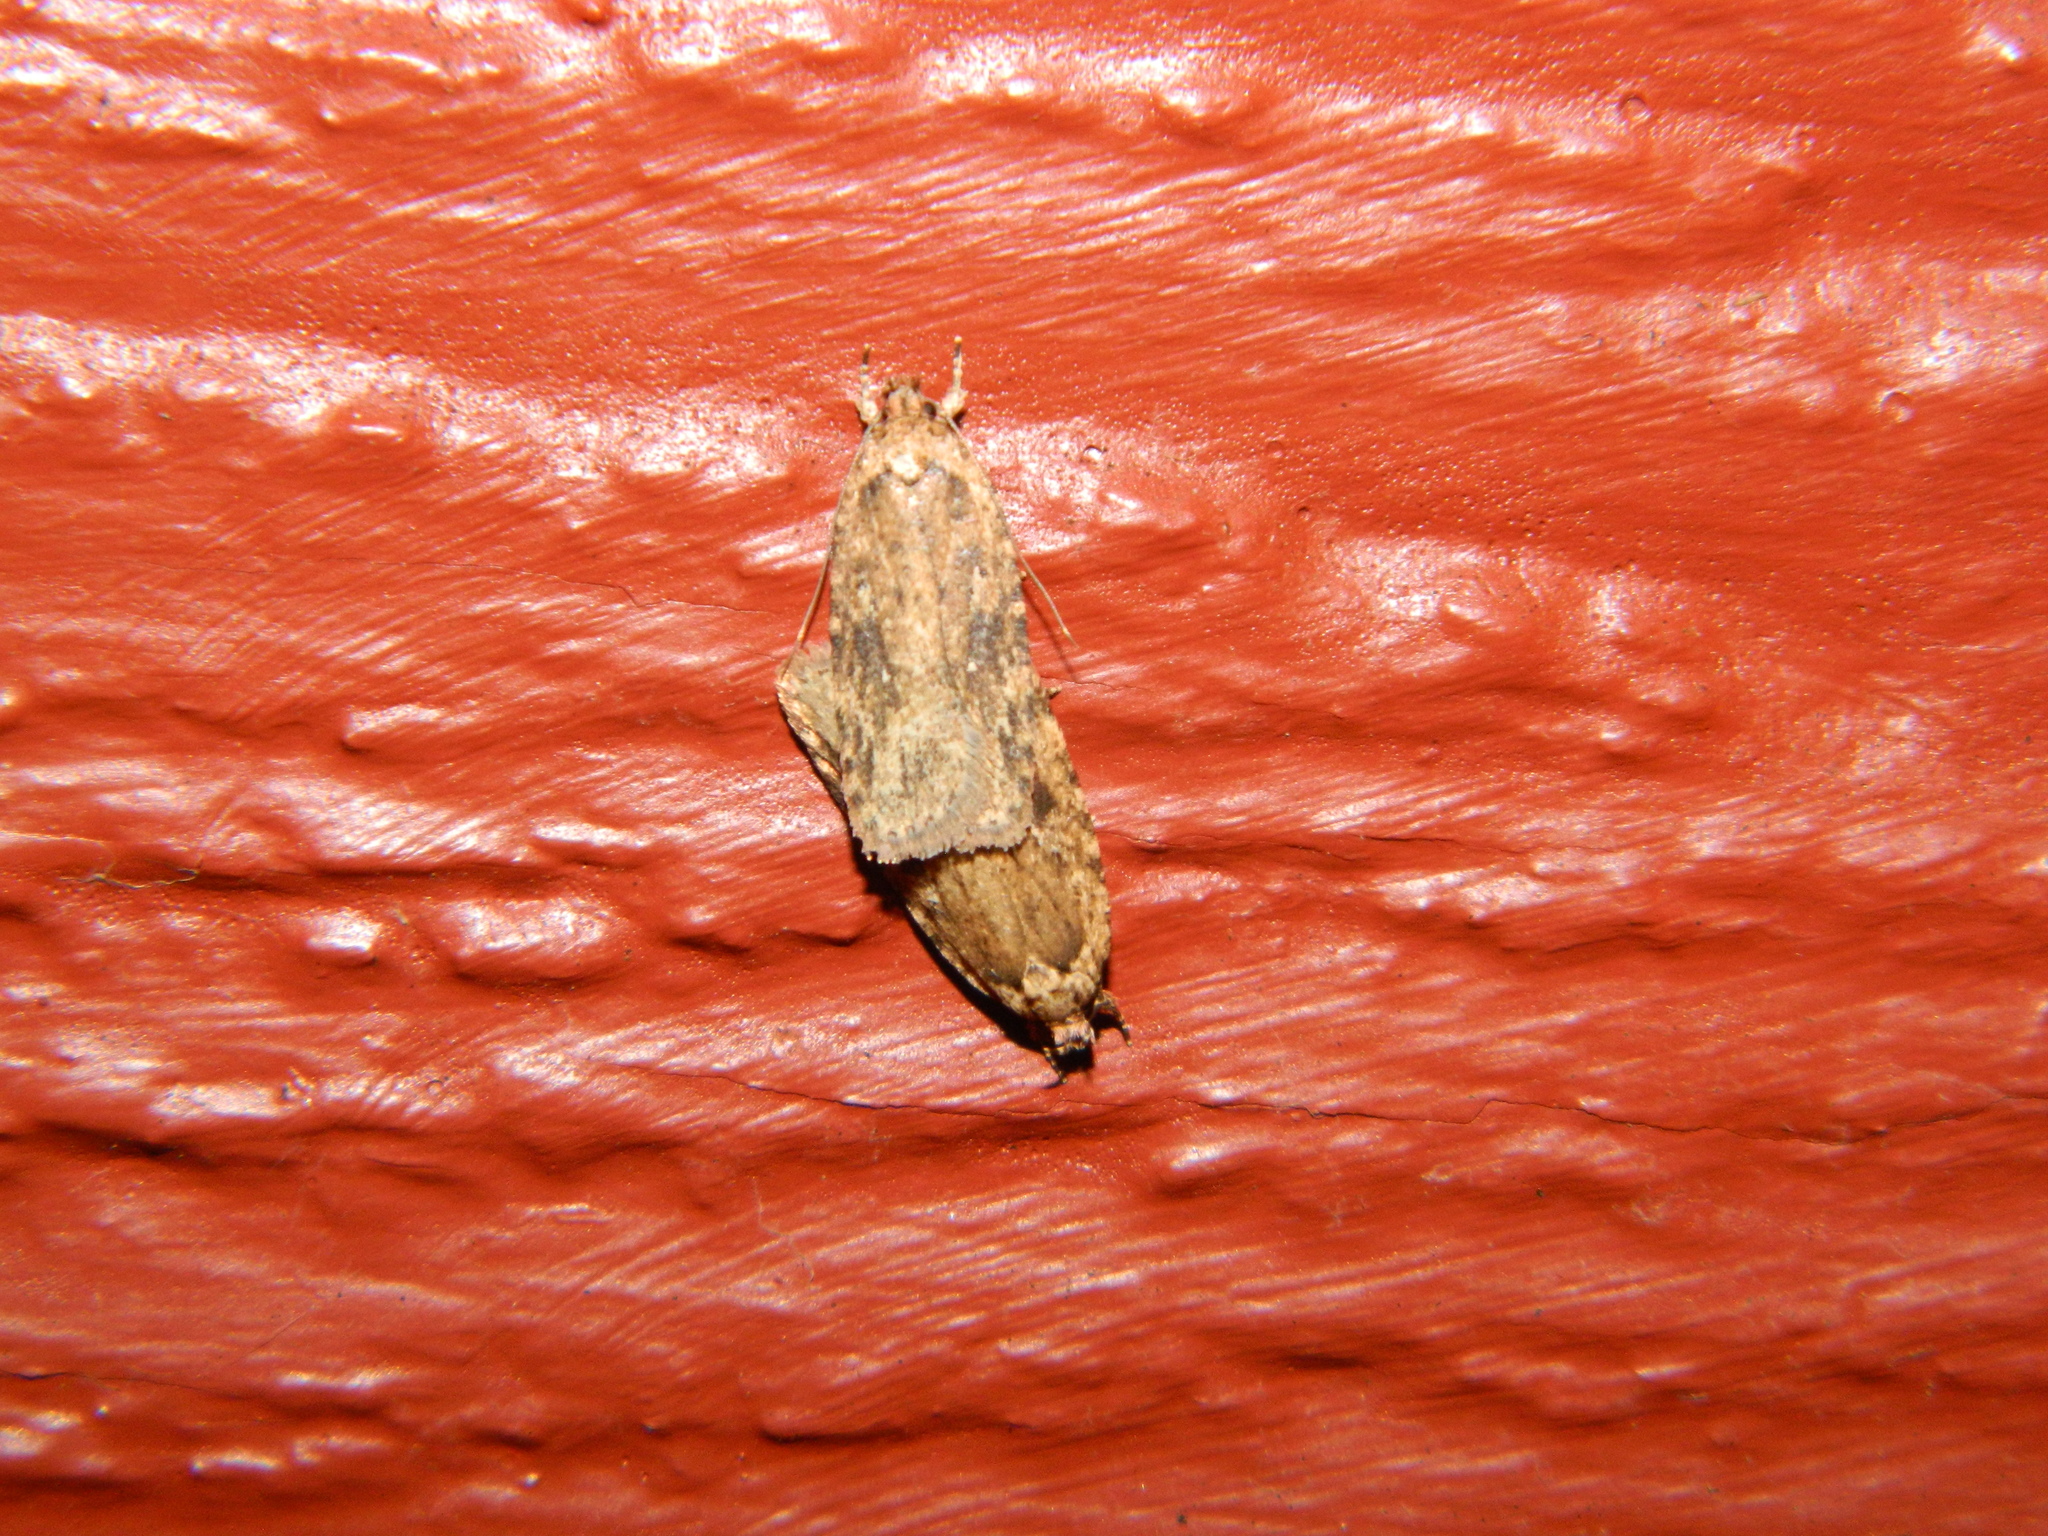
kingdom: Animalia
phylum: Arthropoda
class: Insecta
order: Lepidoptera
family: Depressariidae
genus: Agonopterix
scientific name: Agonopterix pulvipennella
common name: Goldenrod leafffolder
